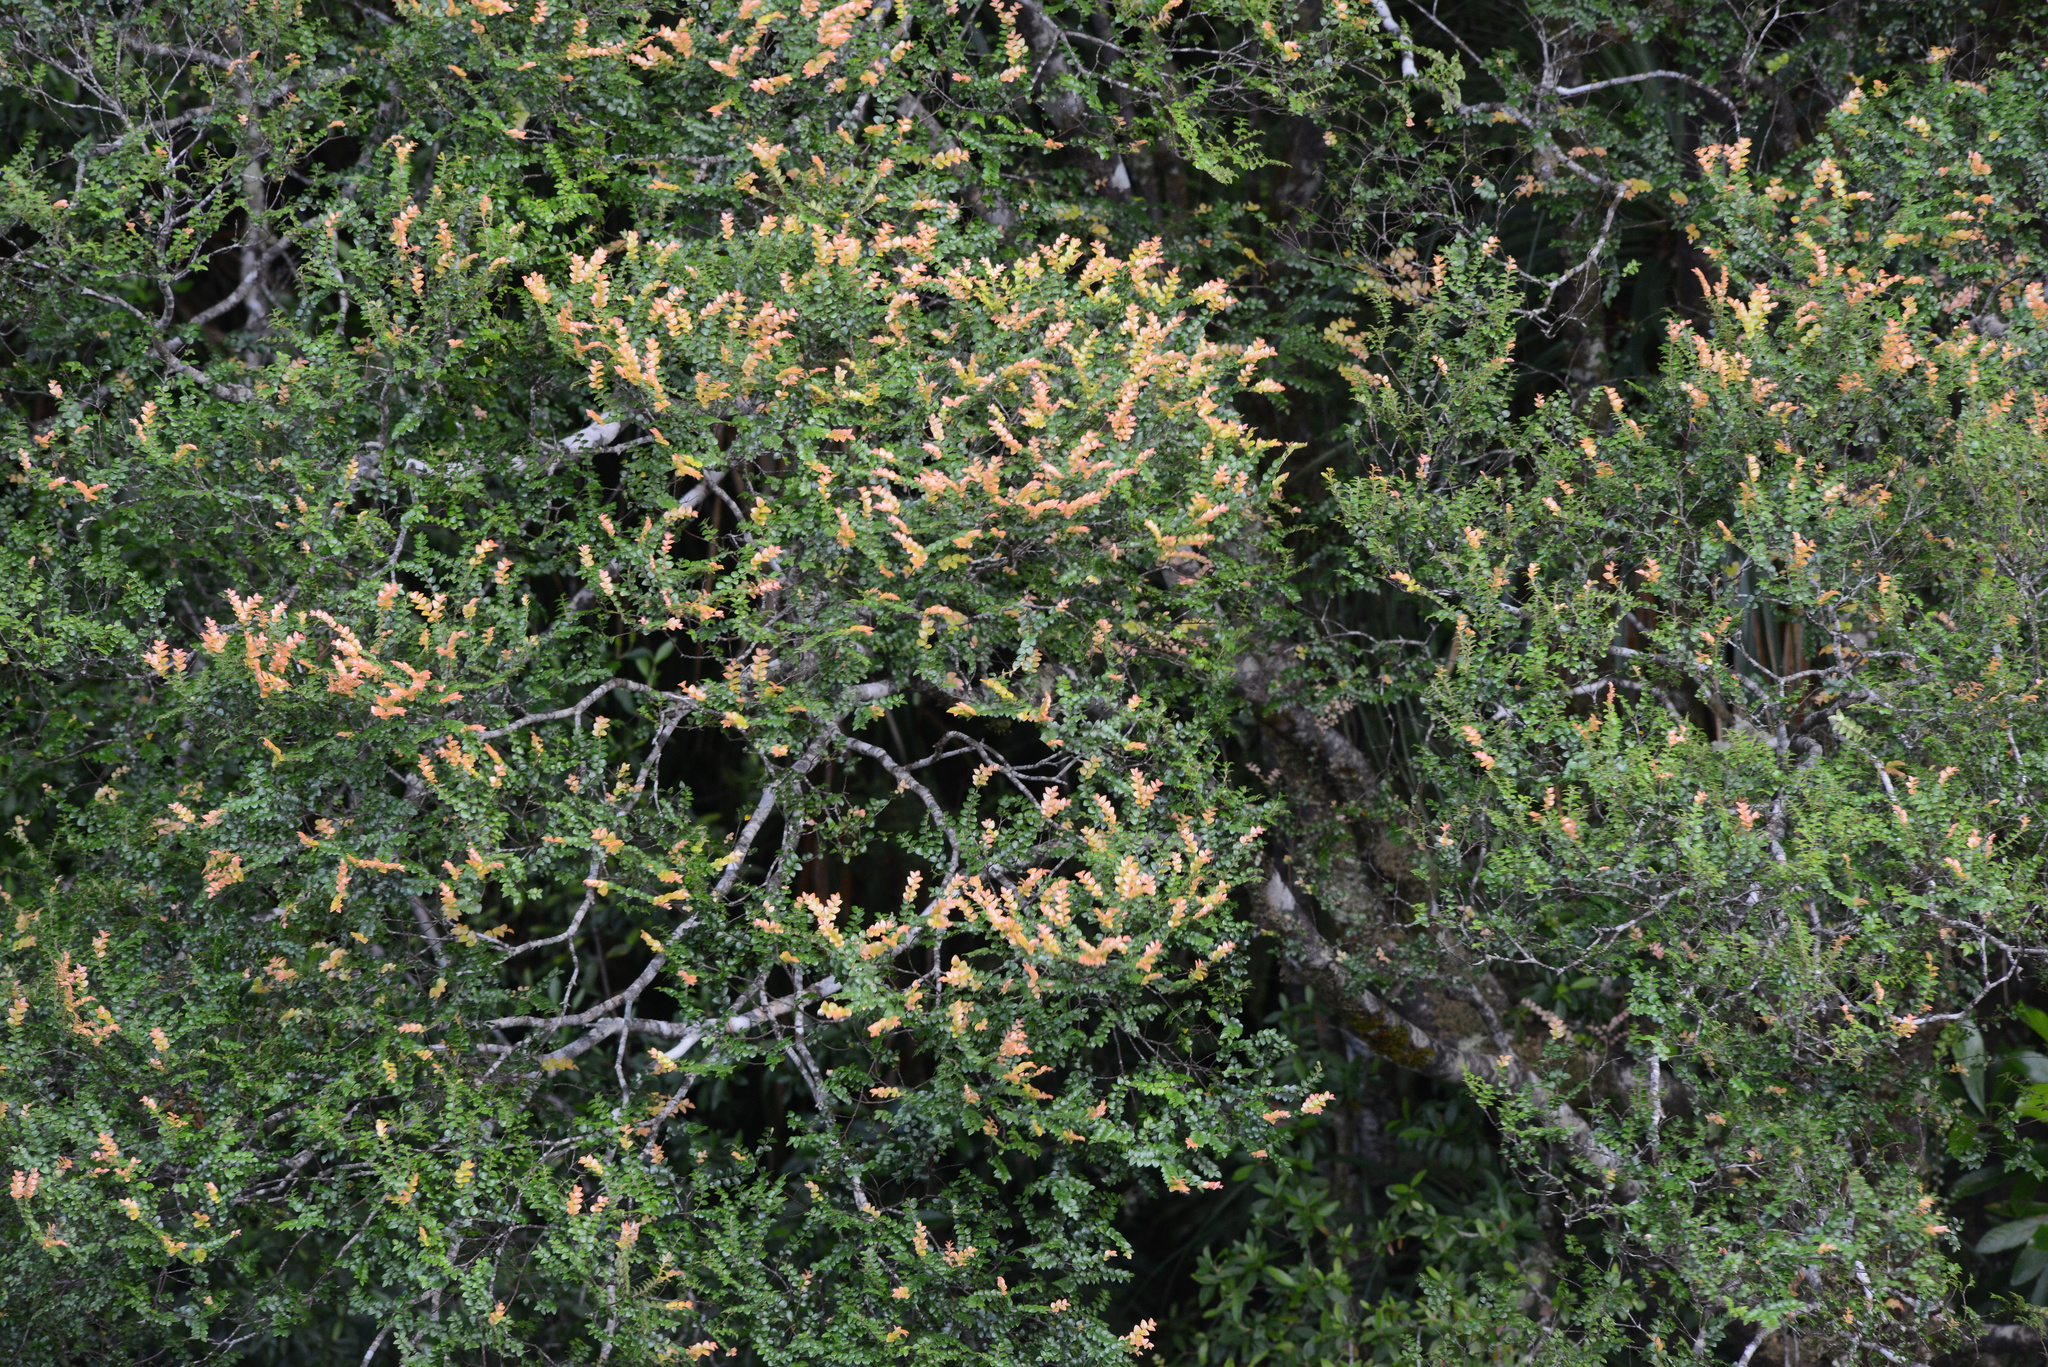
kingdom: Plantae
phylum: Tracheophyta
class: Magnoliopsida
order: Fagales
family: Nothofagaceae
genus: Nothofagus
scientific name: Nothofagus cunninghamii
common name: Myrtle beech
